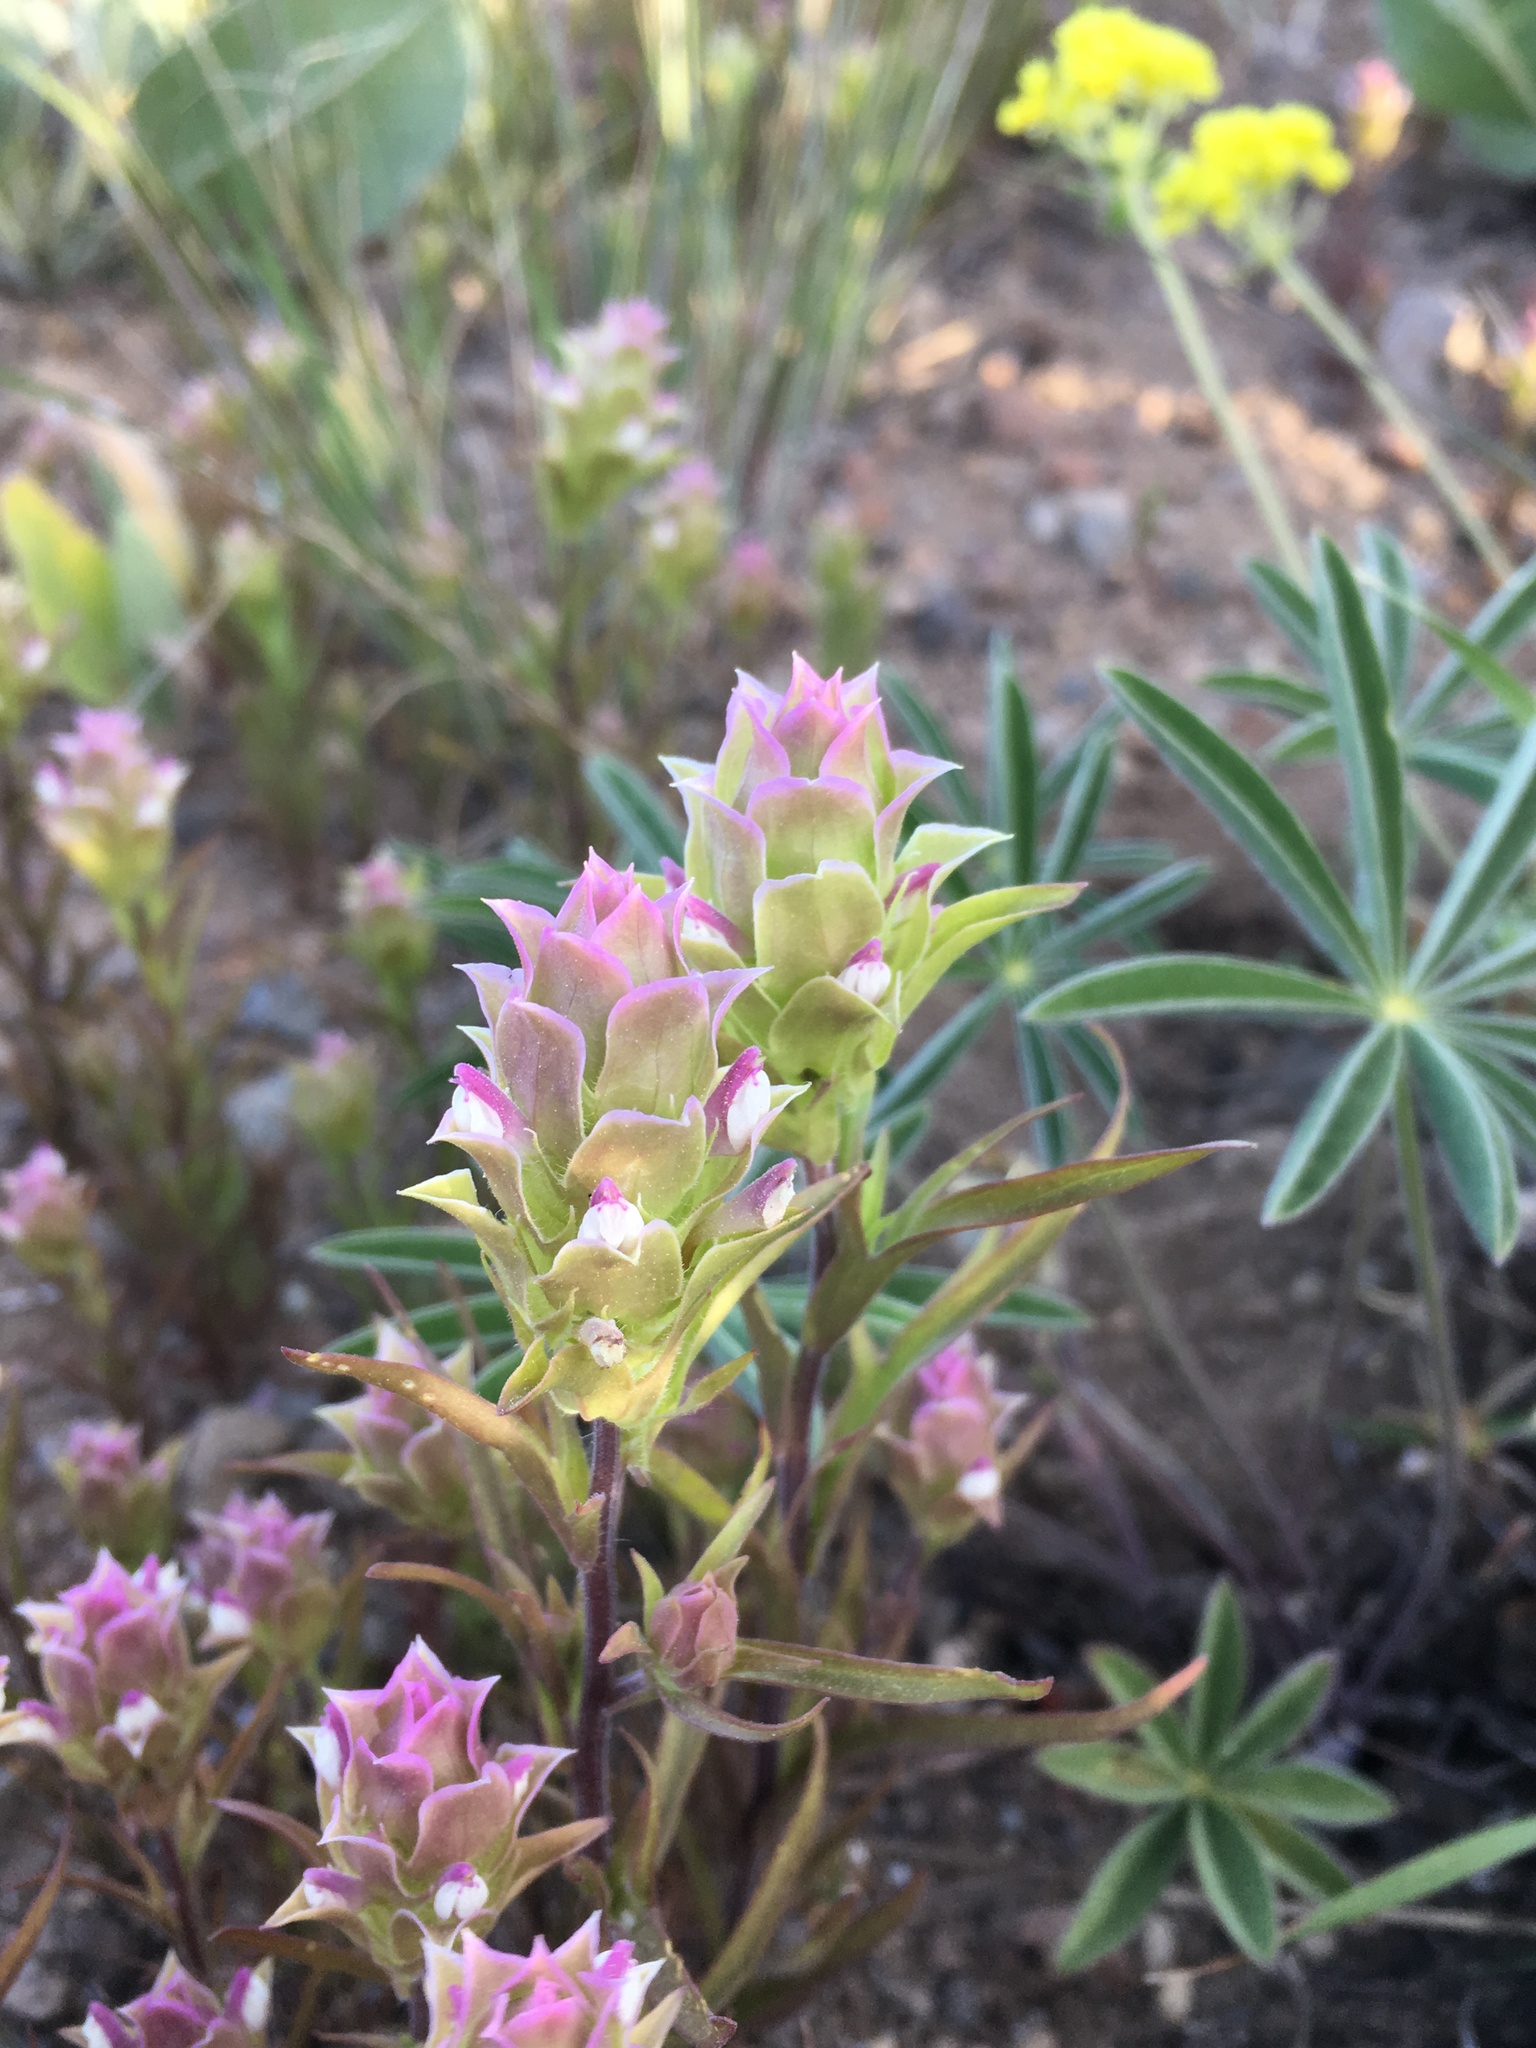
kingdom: Plantae
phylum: Tracheophyta
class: Magnoliopsida
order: Lamiales
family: Orobanchaceae
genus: Orthocarpus
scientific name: Orthocarpus cuspidatus
